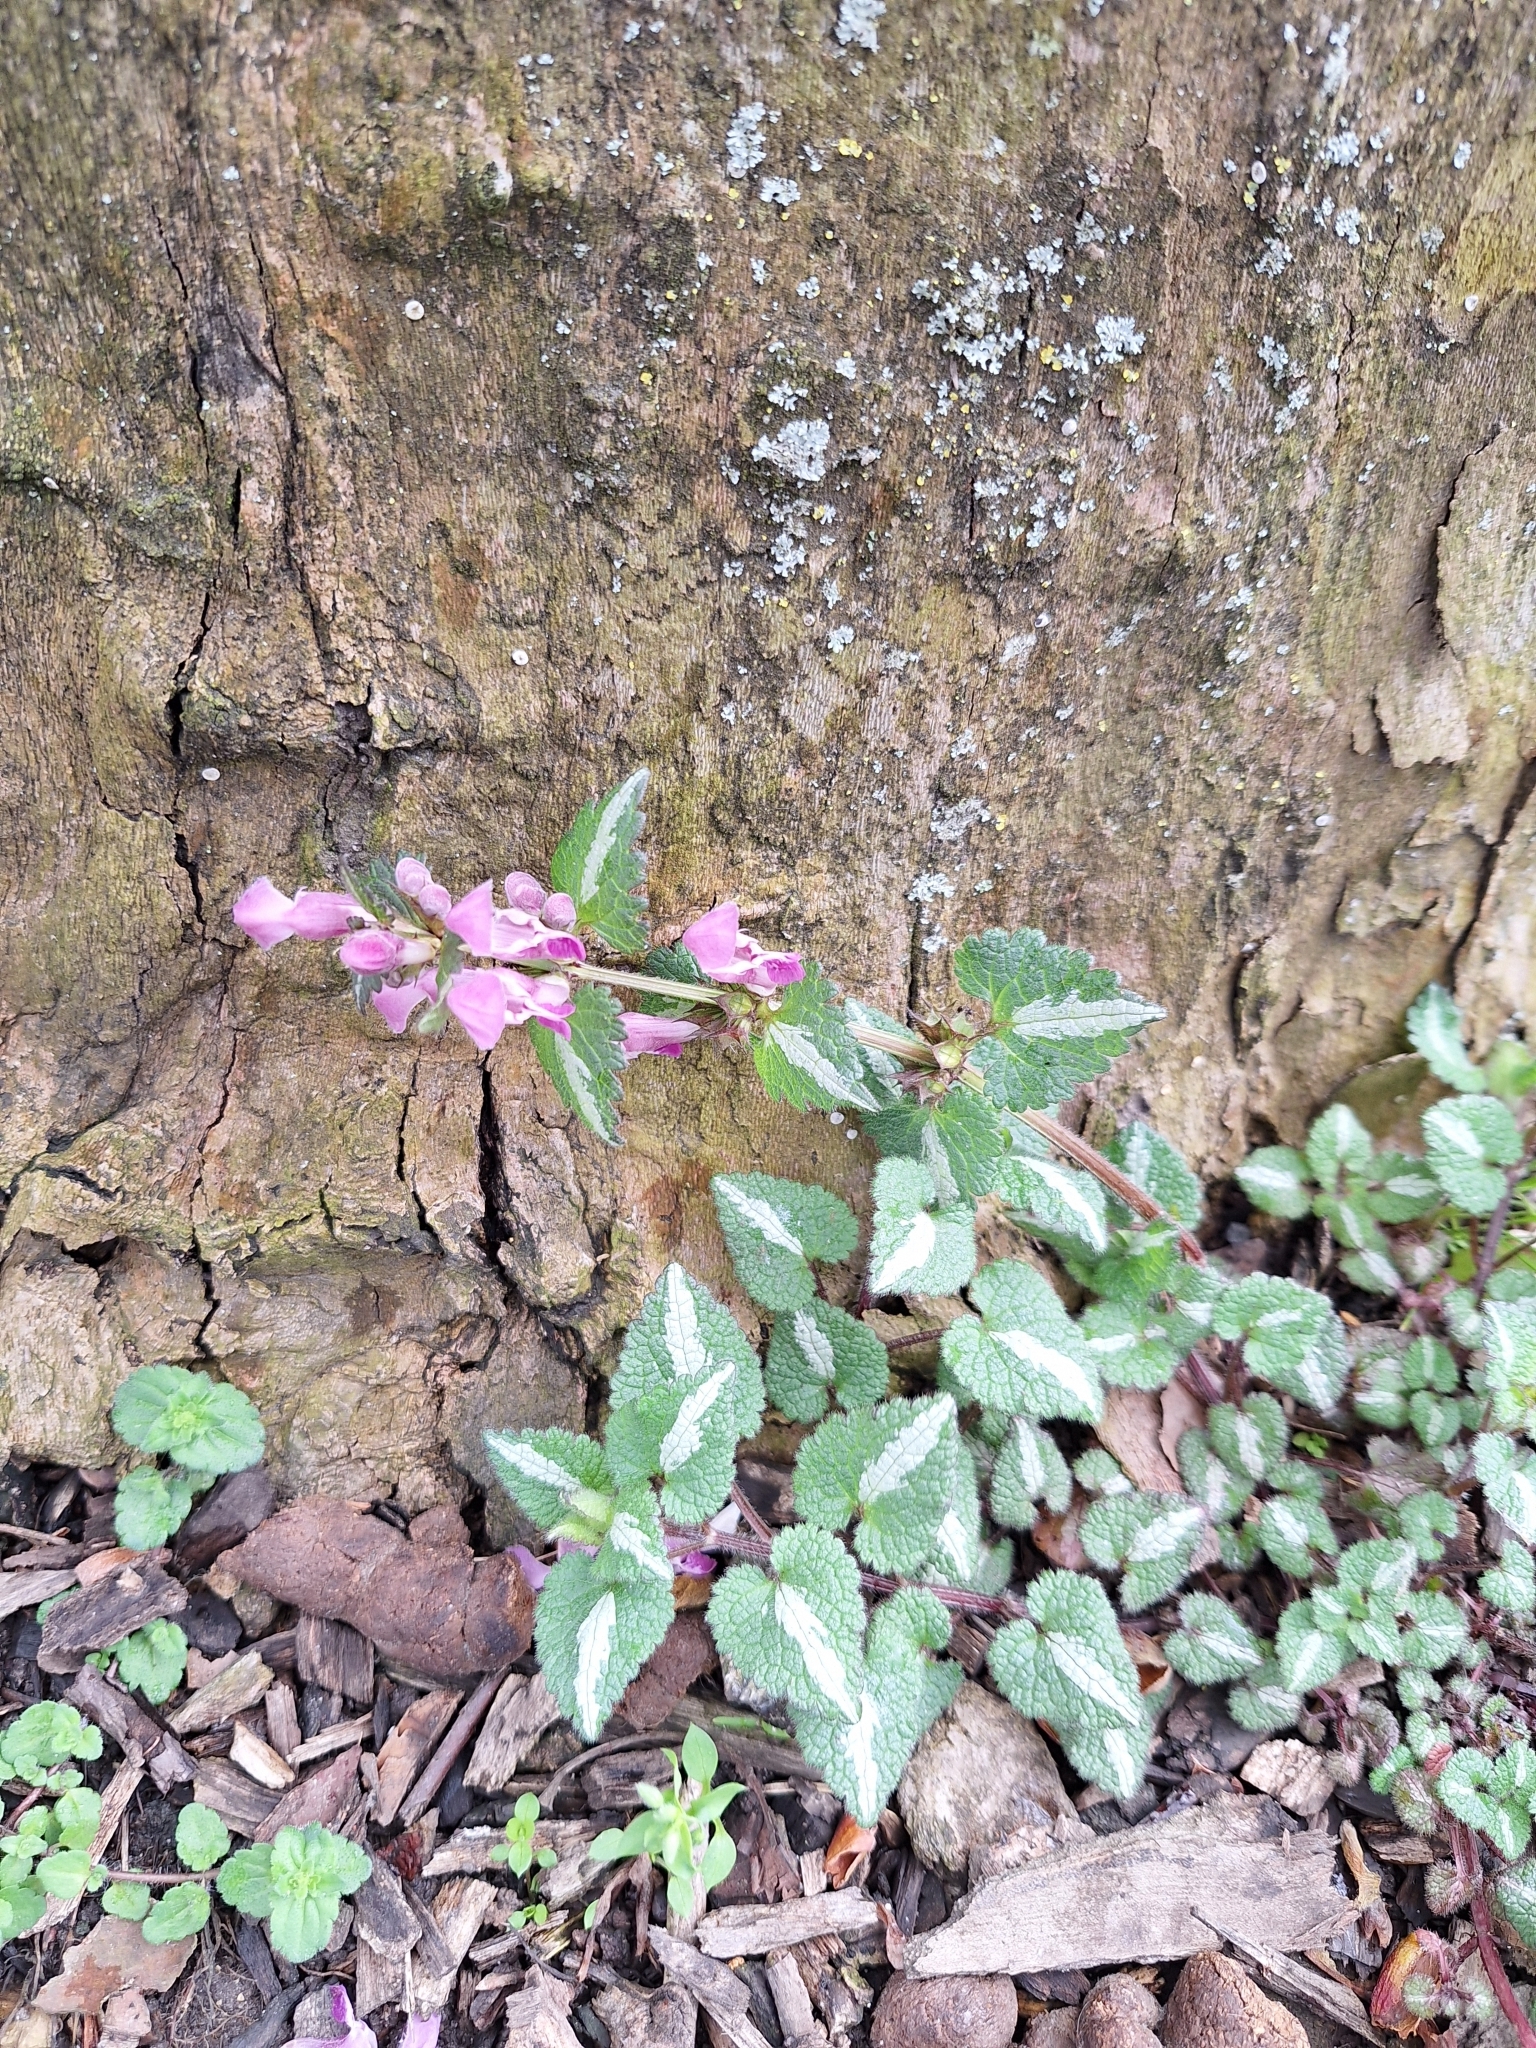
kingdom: Plantae
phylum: Tracheophyta
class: Magnoliopsida
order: Lamiales
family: Lamiaceae
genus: Lamium
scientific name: Lamium maculatum
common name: Spotted dead-nettle
